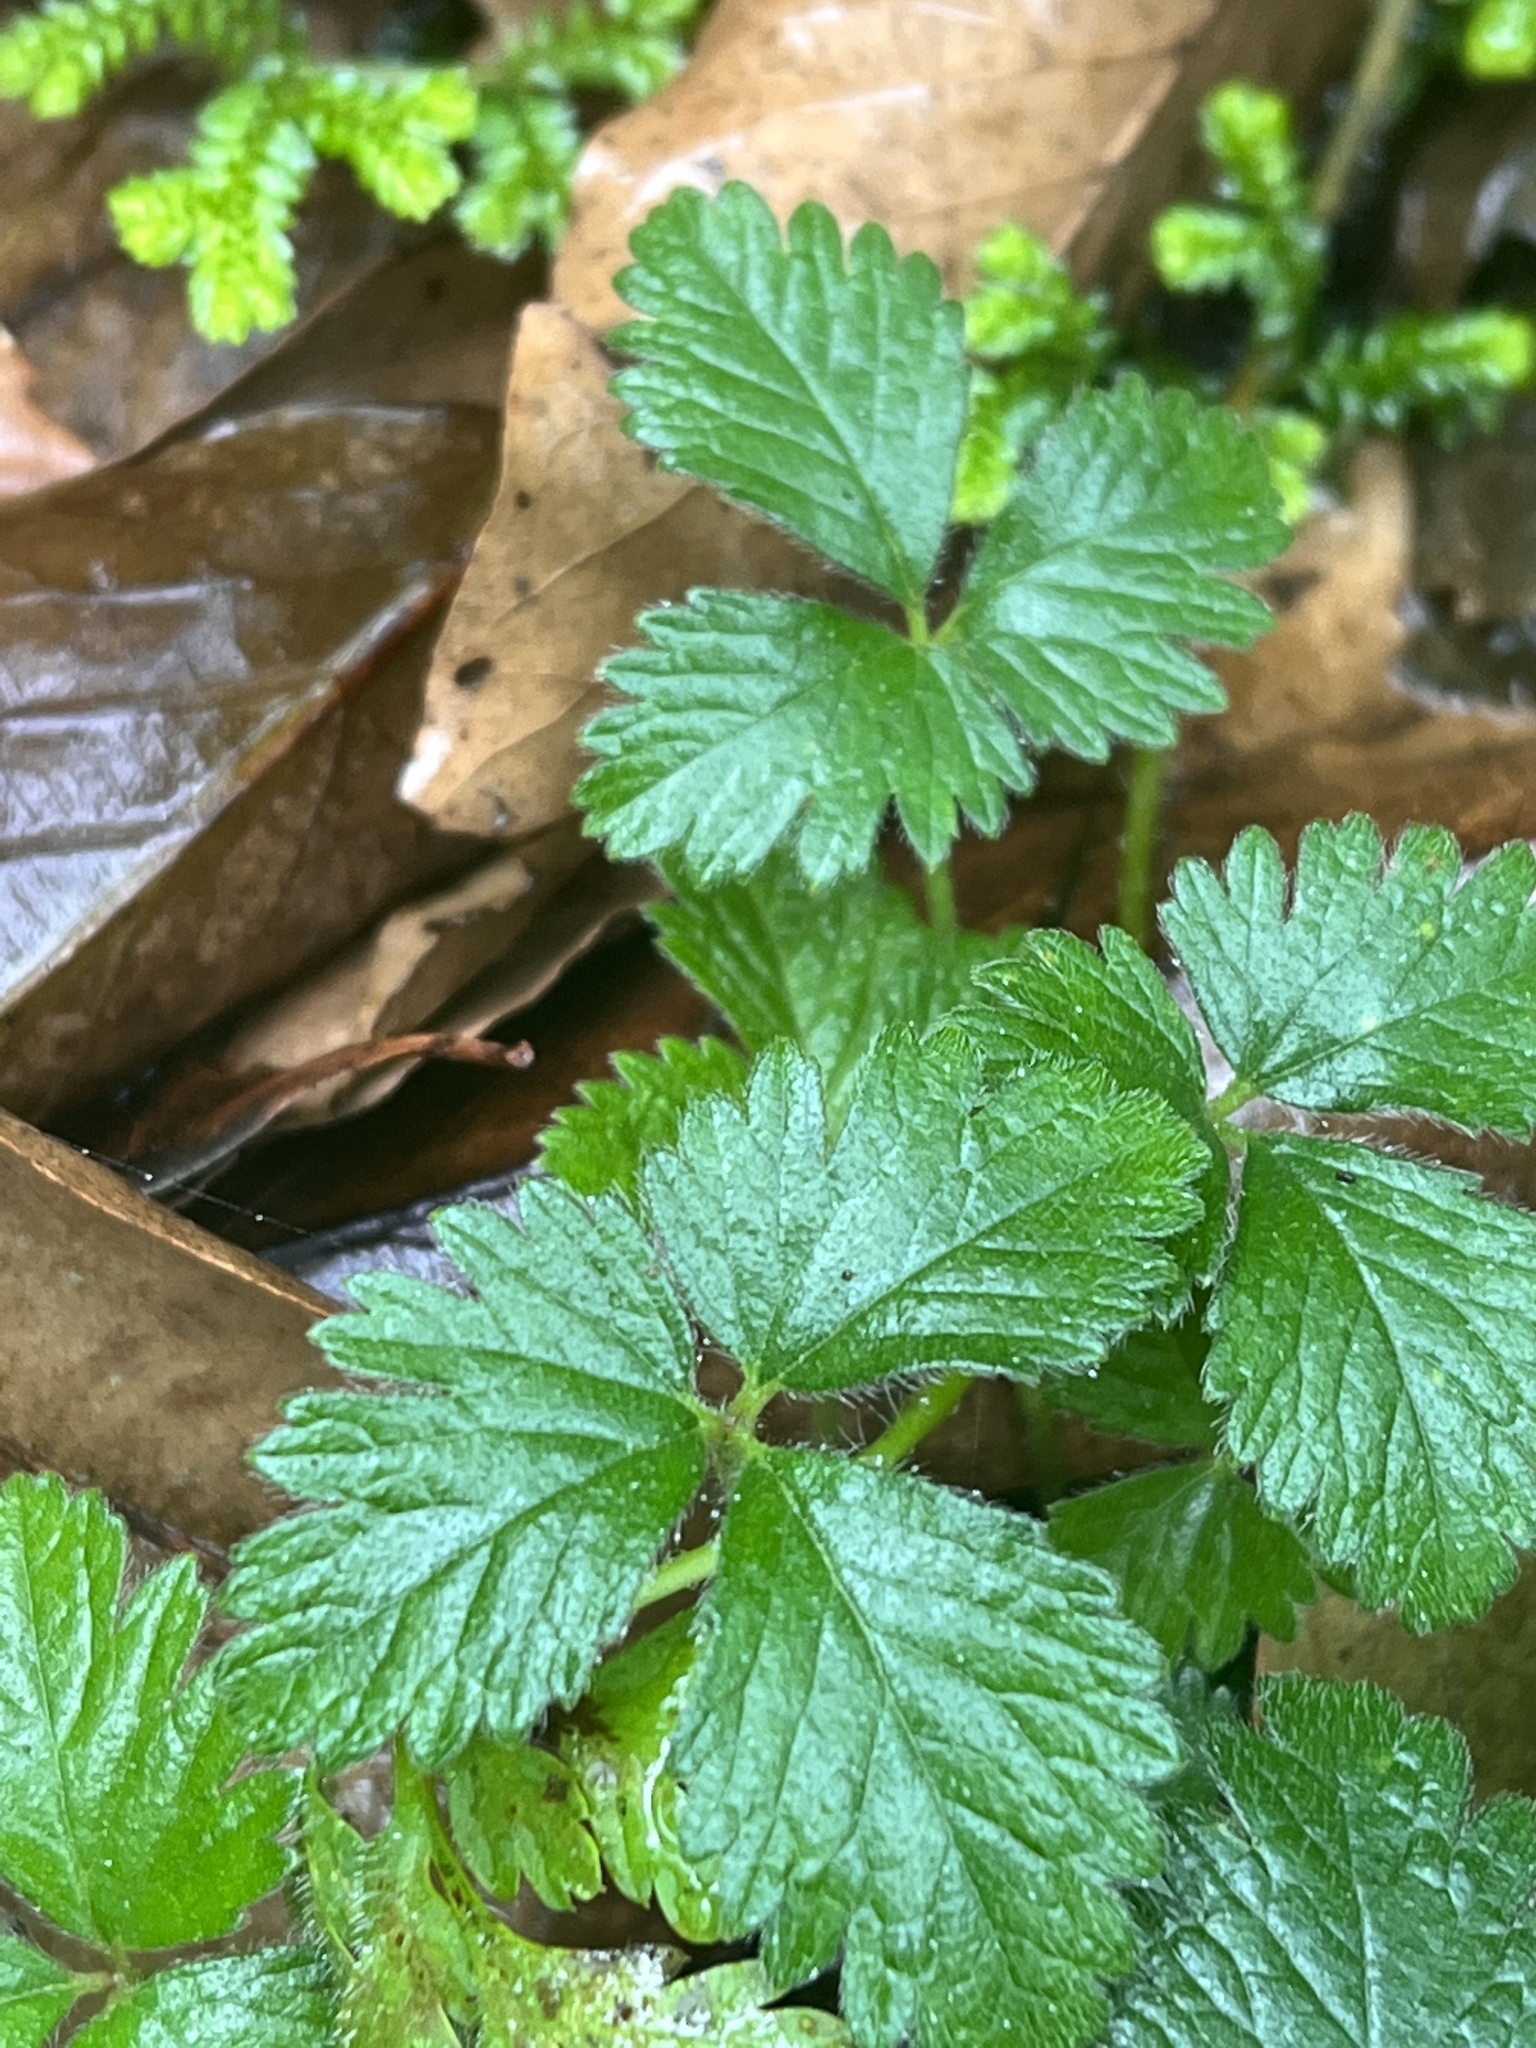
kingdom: Plantae
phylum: Tracheophyta
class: Magnoliopsida
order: Rosales
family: Rosaceae
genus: Potentilla
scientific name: Potentilla indica
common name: Yellow-flowered strawberry
